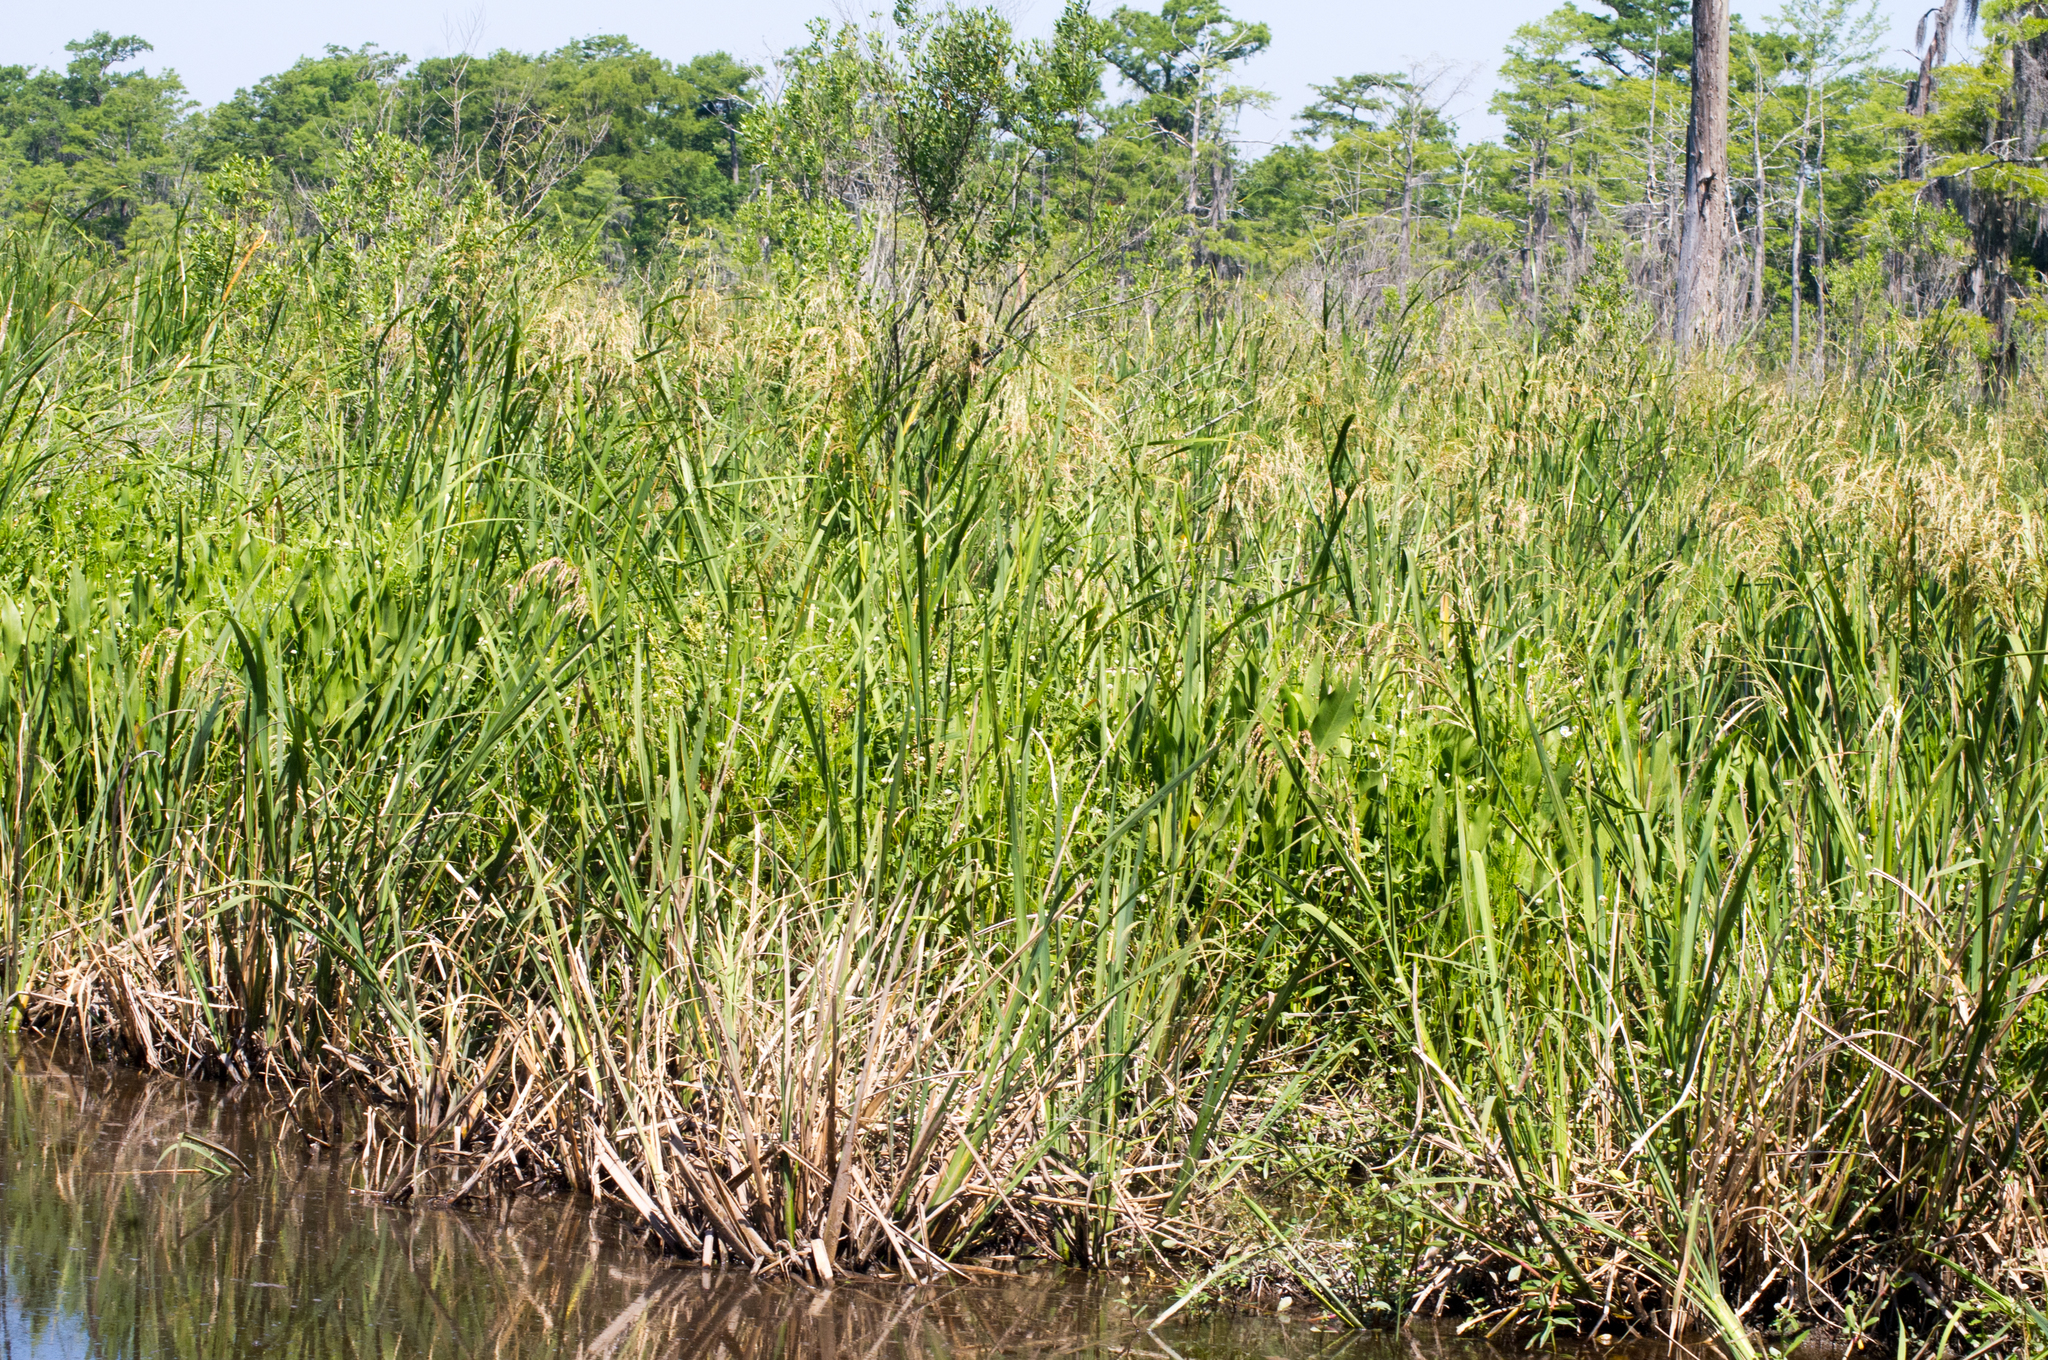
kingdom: Plantae
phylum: Tracheophyta
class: Liliopsida
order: Poales
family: Poaceae
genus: Zizaniopsis
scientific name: Zizaniopsis miliacea
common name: Giant-cutgrass
